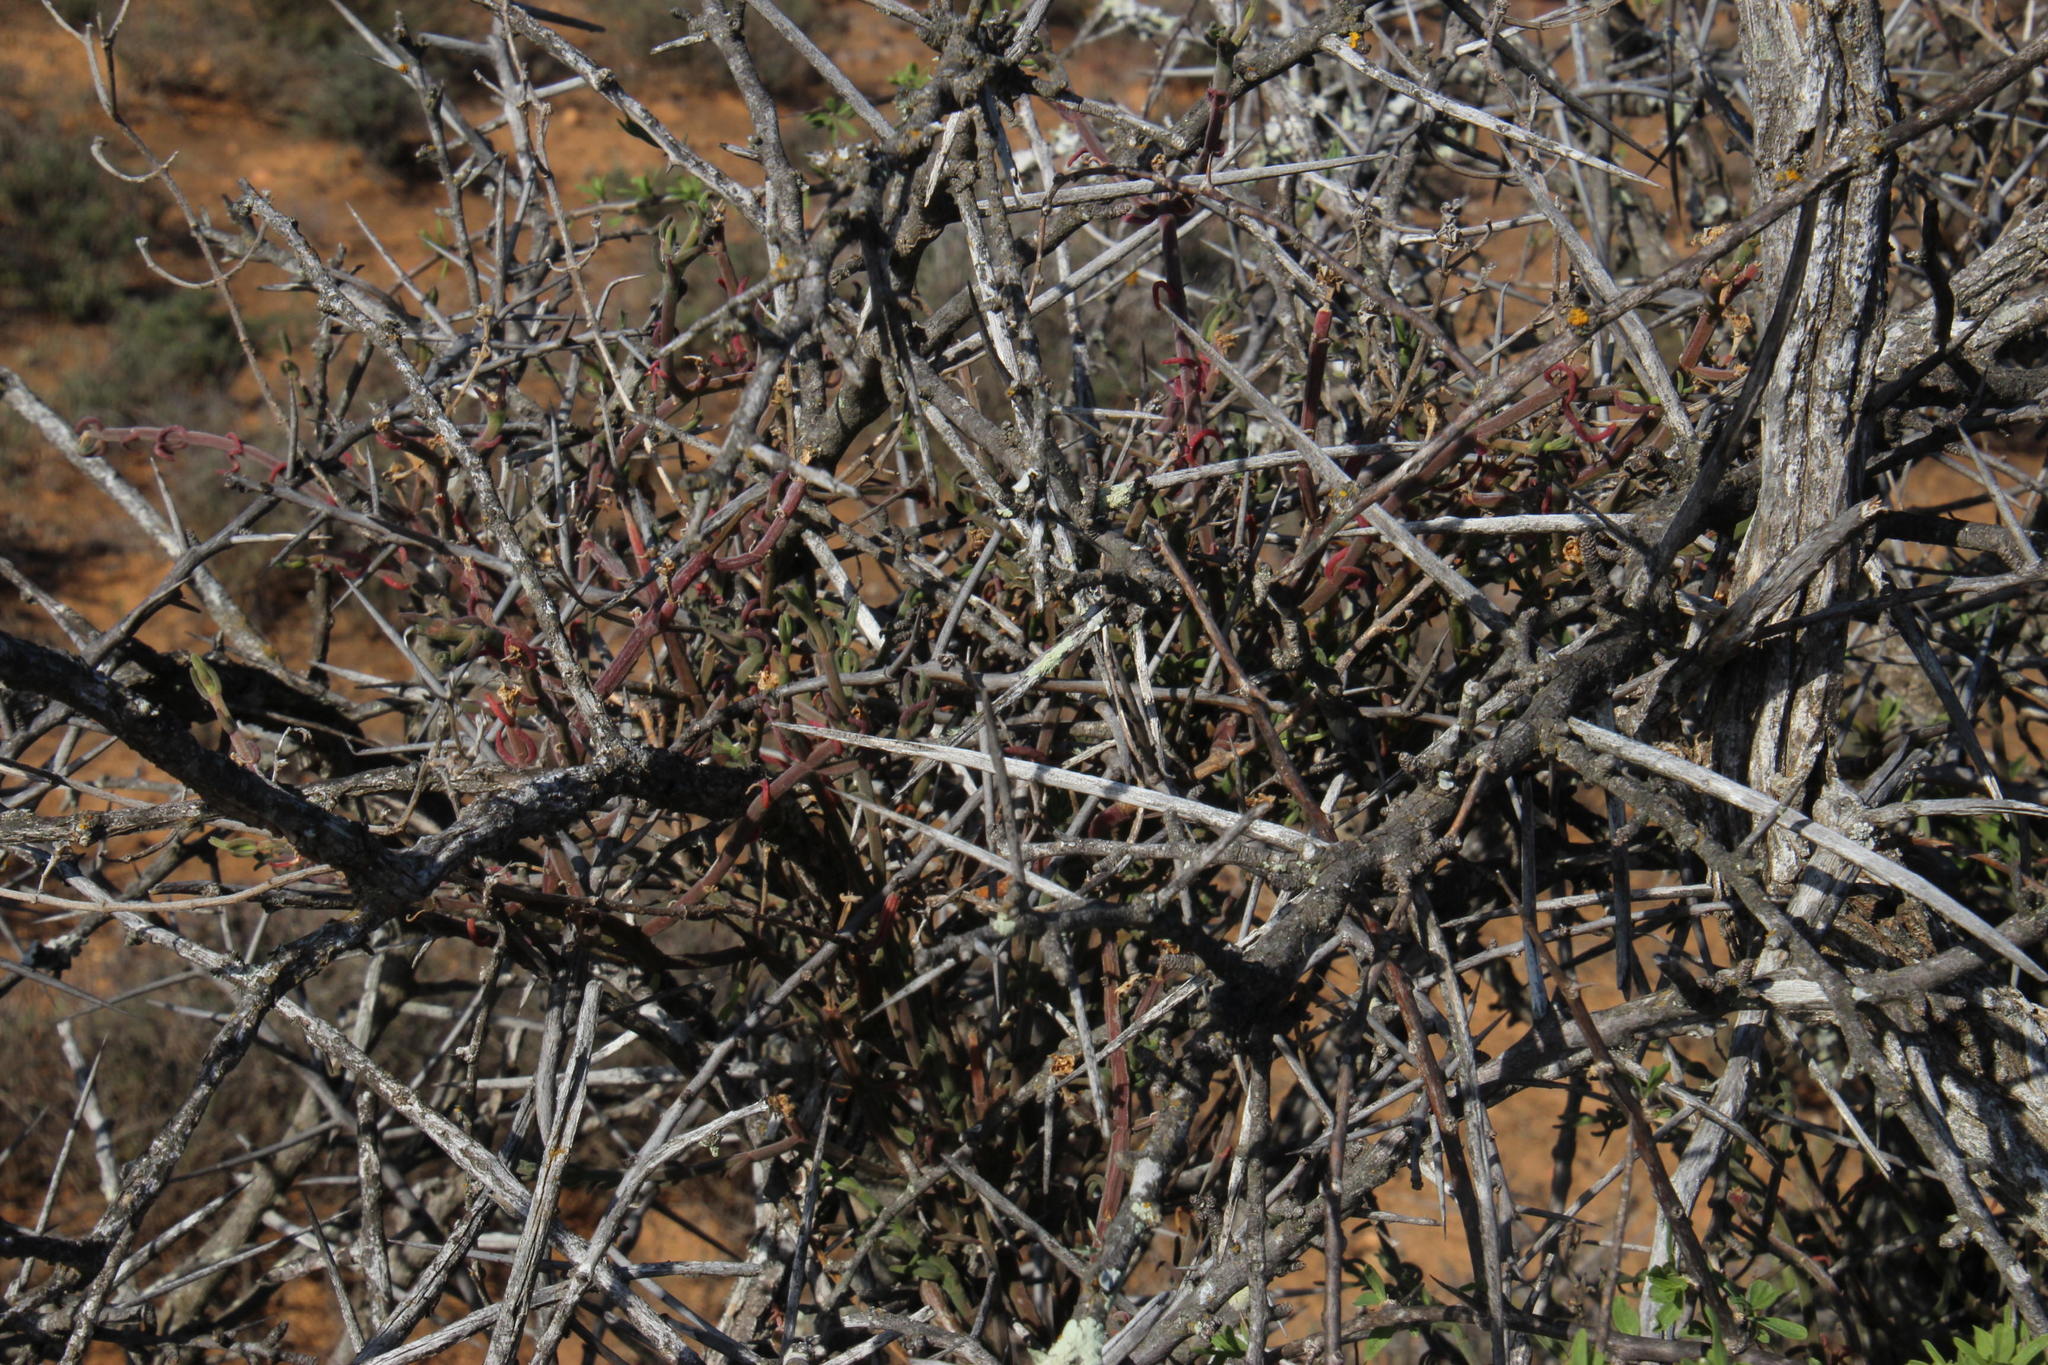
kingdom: Plantae
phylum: Tracheophyta
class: Magnoliopsida
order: Caryophyllales
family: Aizoaceae
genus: Mesembryanthemum
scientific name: Mesembryanthemum geniculiflorum
